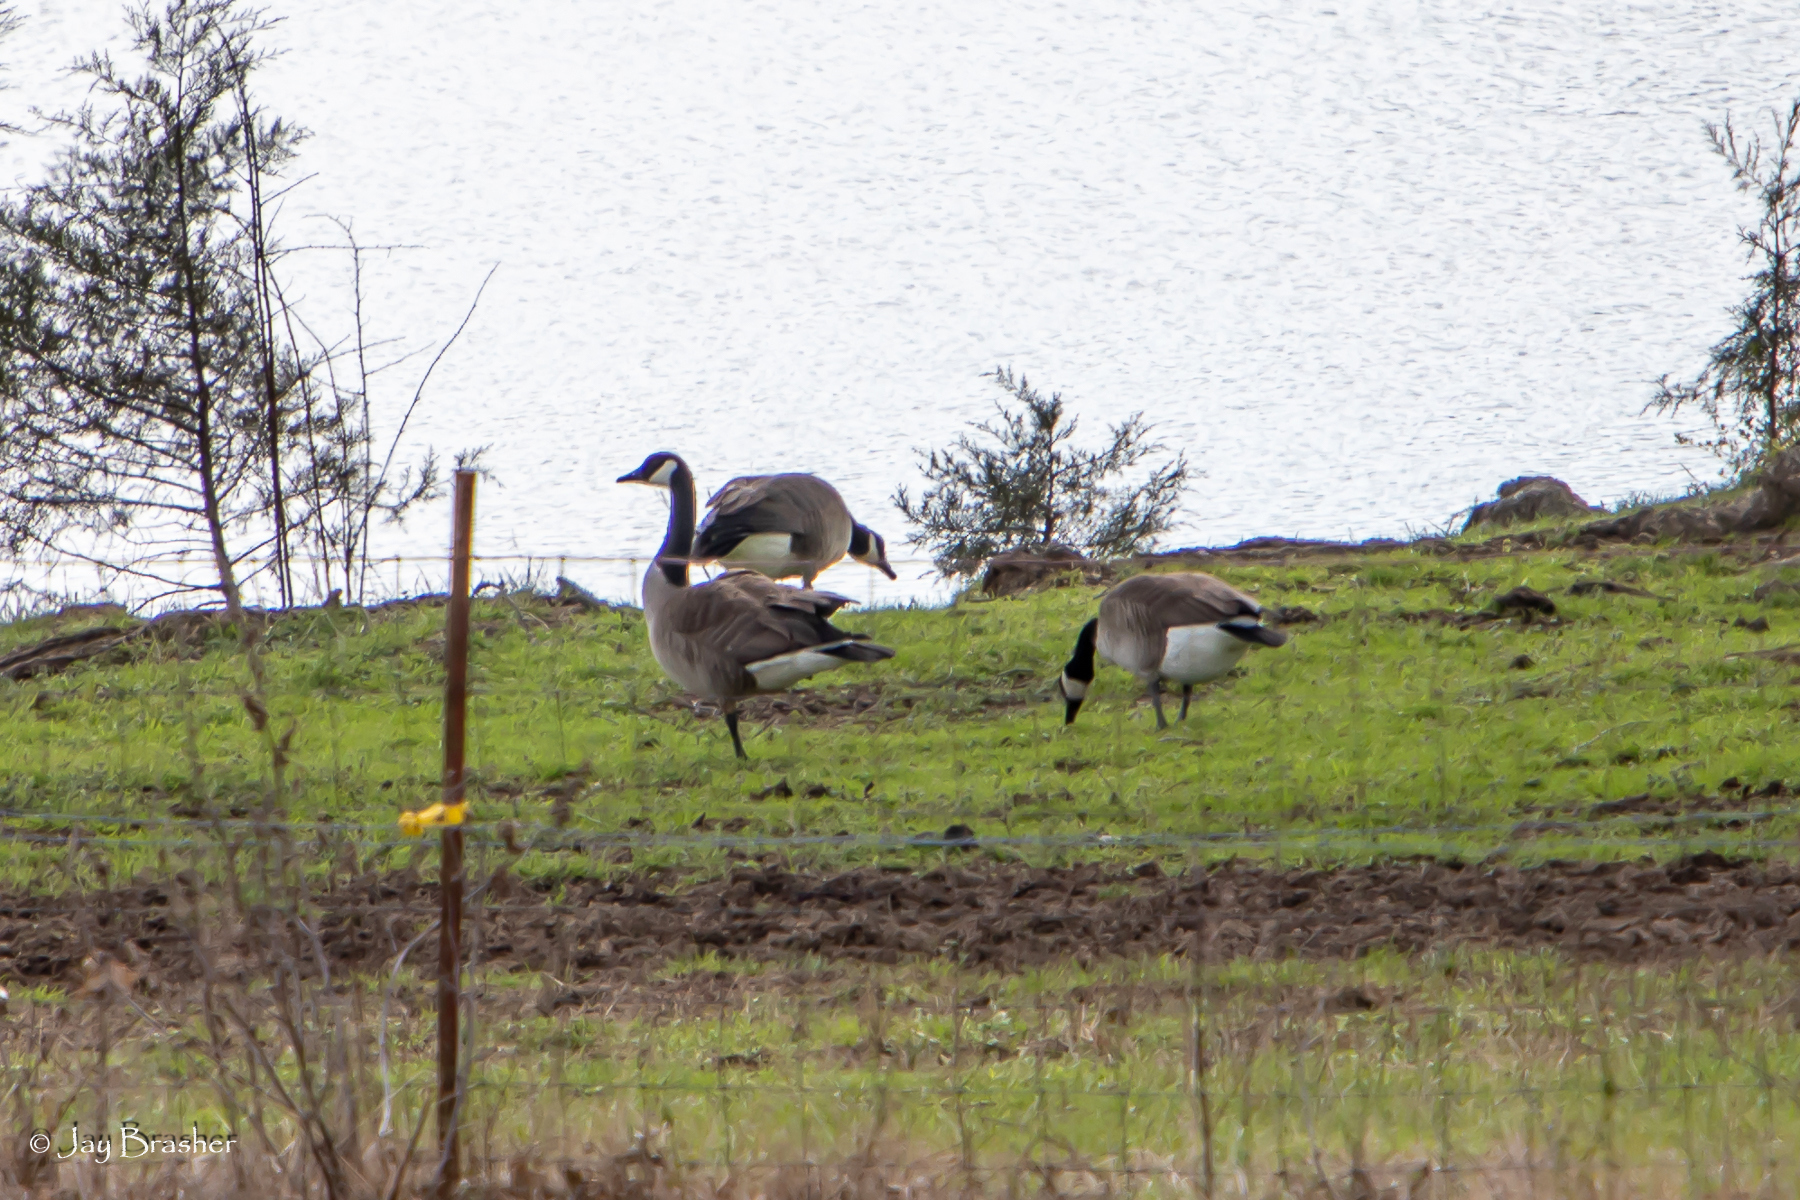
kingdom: Animalia
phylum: Chordata
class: Aves
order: Anseriformes
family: Anatidae
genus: Branta
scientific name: Branta canadensis
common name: Canada goose
